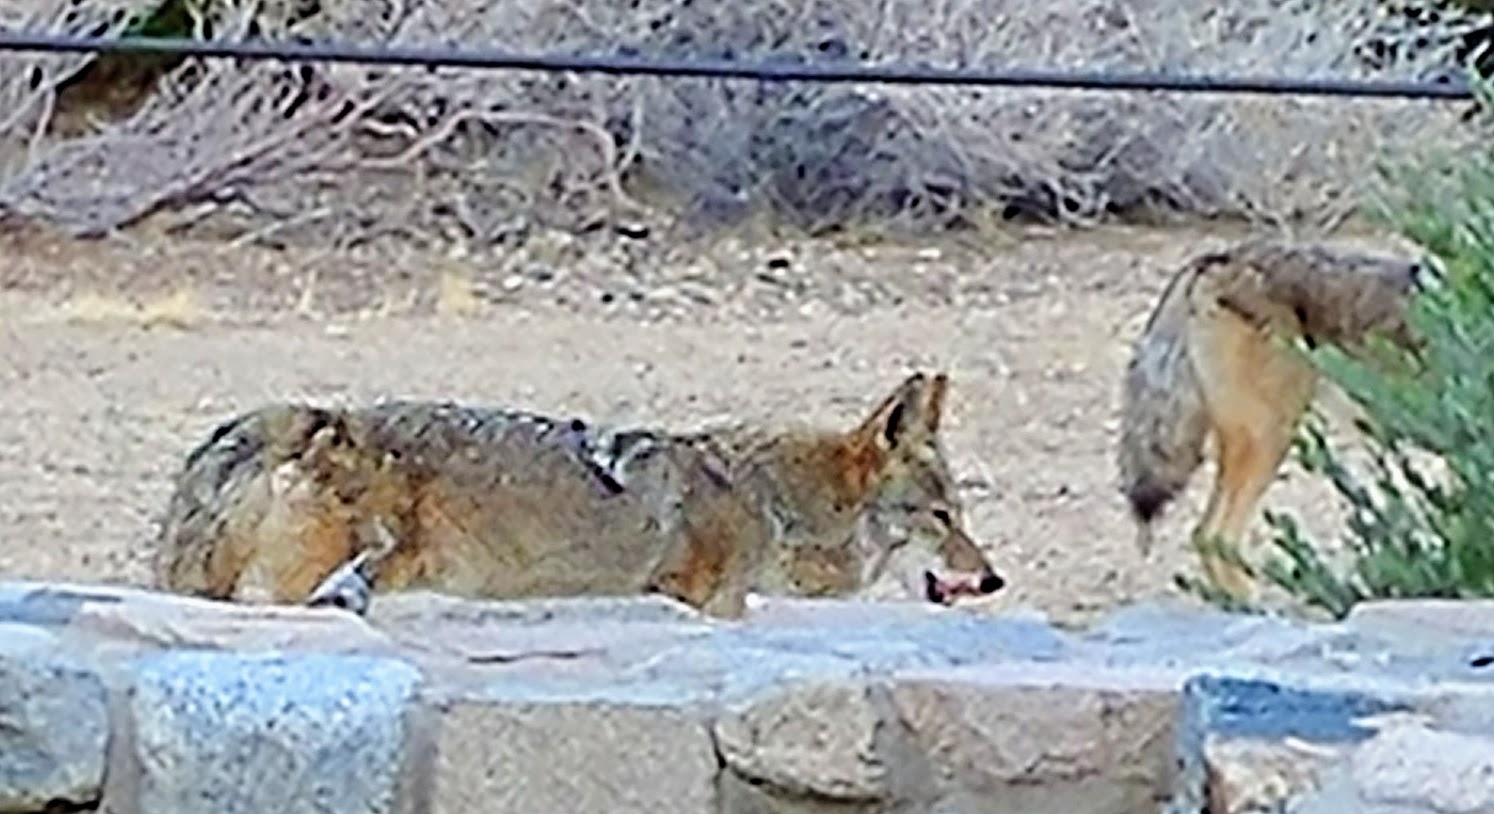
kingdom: Animalia
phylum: Chordata
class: Mammalia
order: Carnivora
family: Canidae
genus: Canis
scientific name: Canis latrans
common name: Coyote
